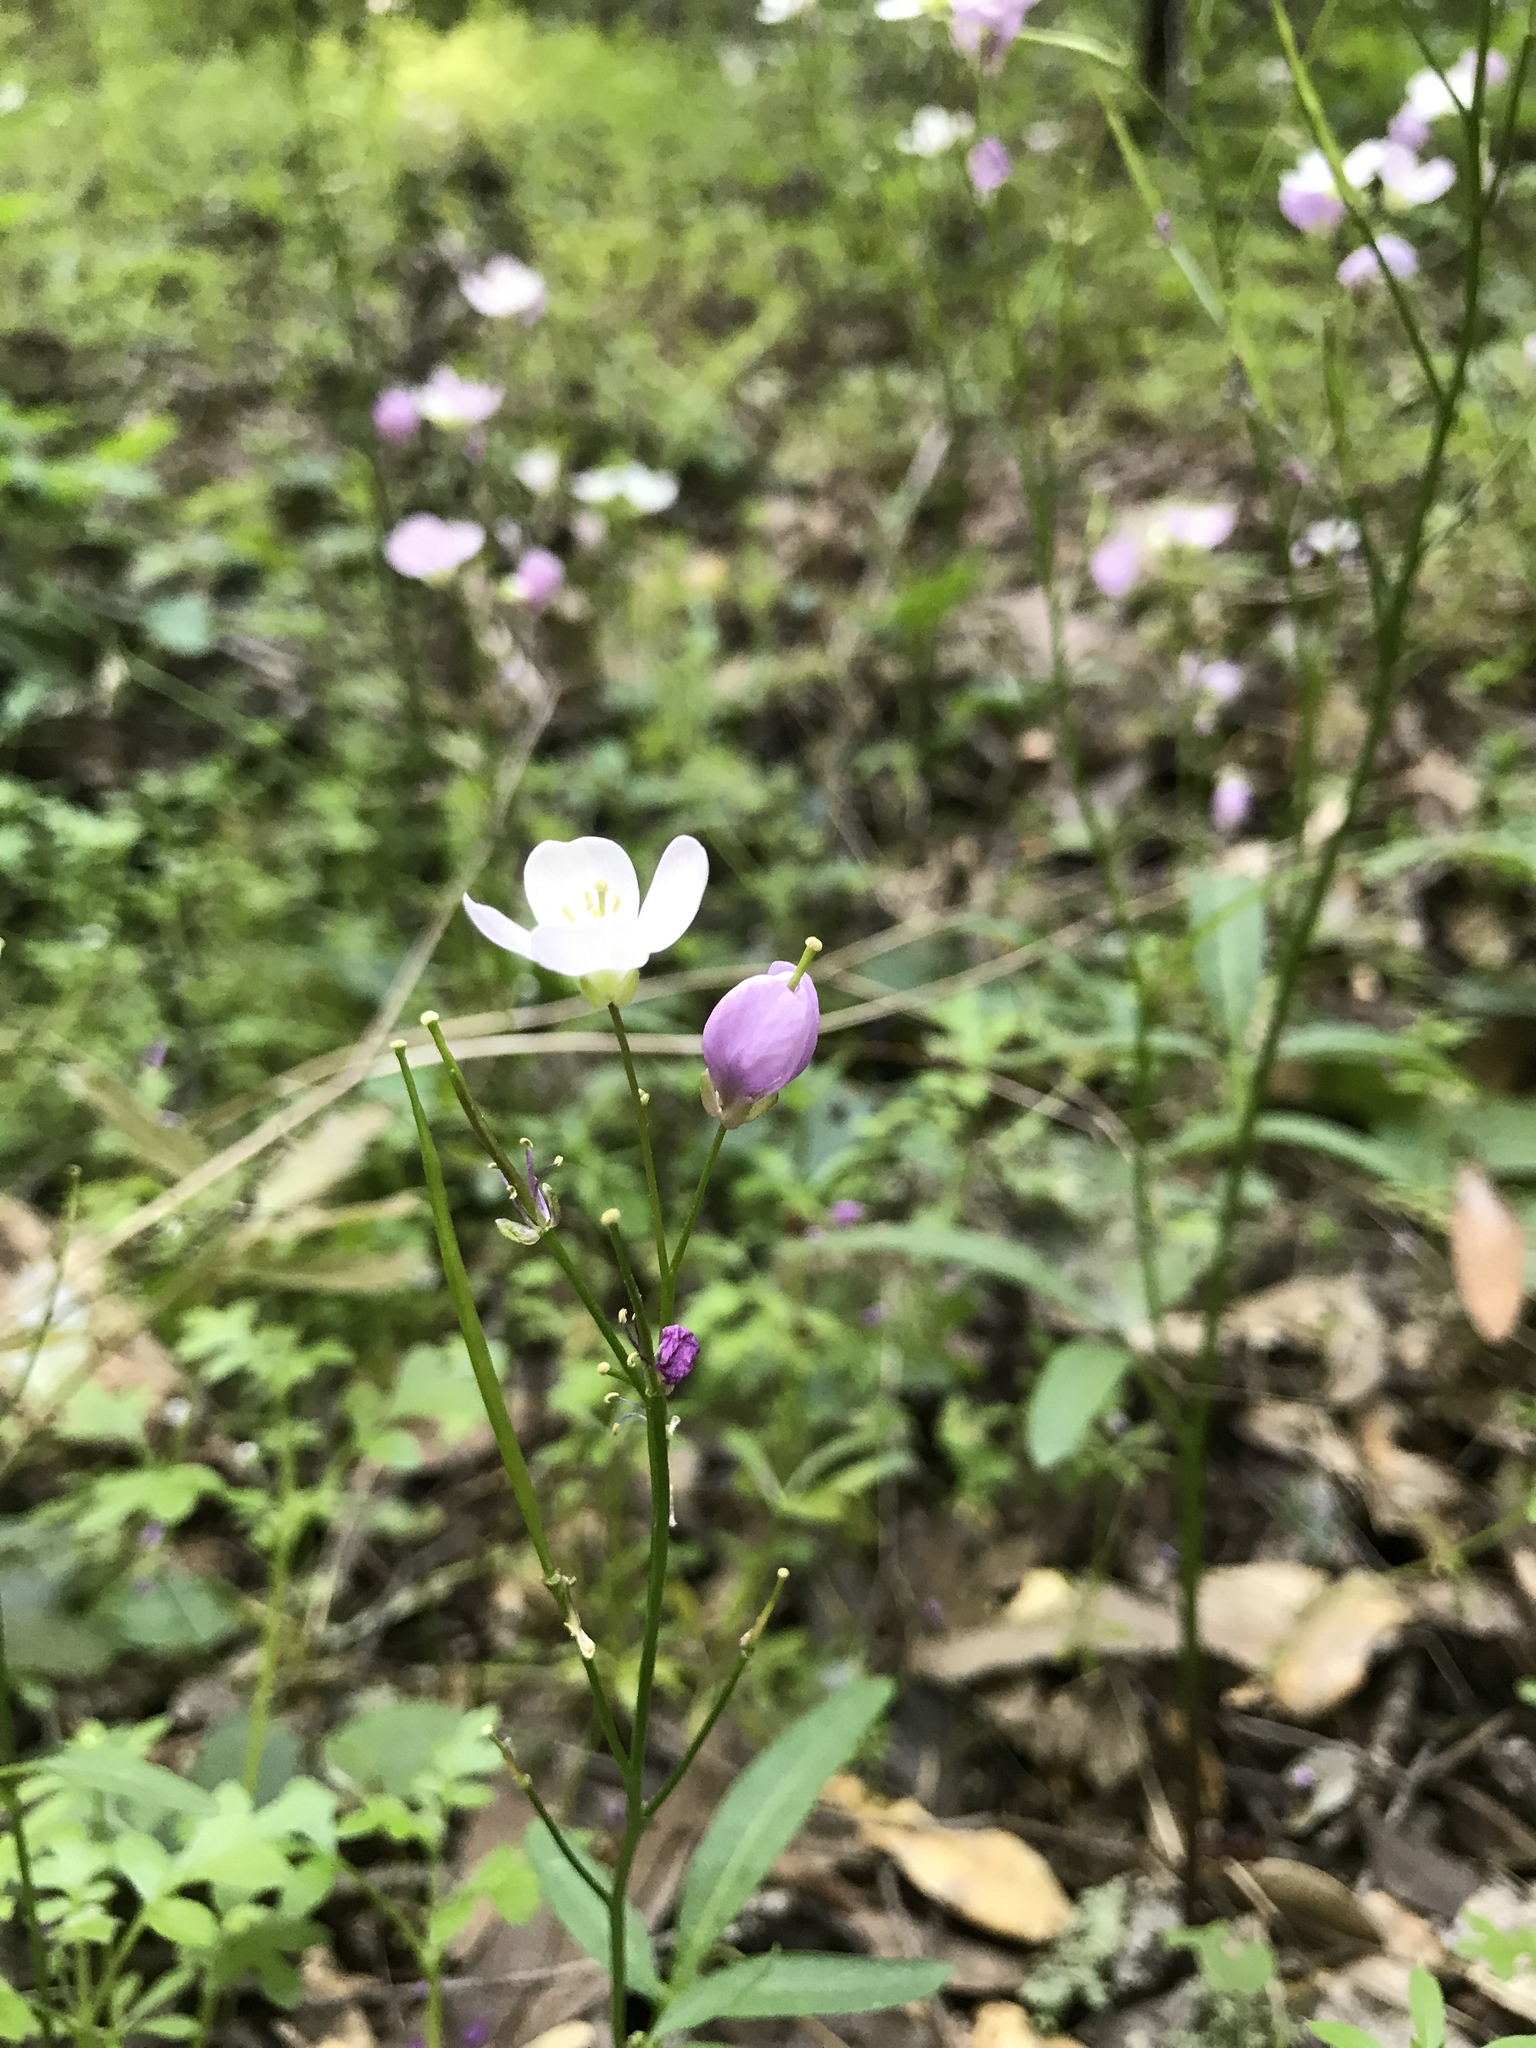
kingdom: Plantae
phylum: Tracheophyta
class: Magnoliopsida
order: Brassicales
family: Brassicaceae
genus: Cardamine
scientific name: Cardamine californica
